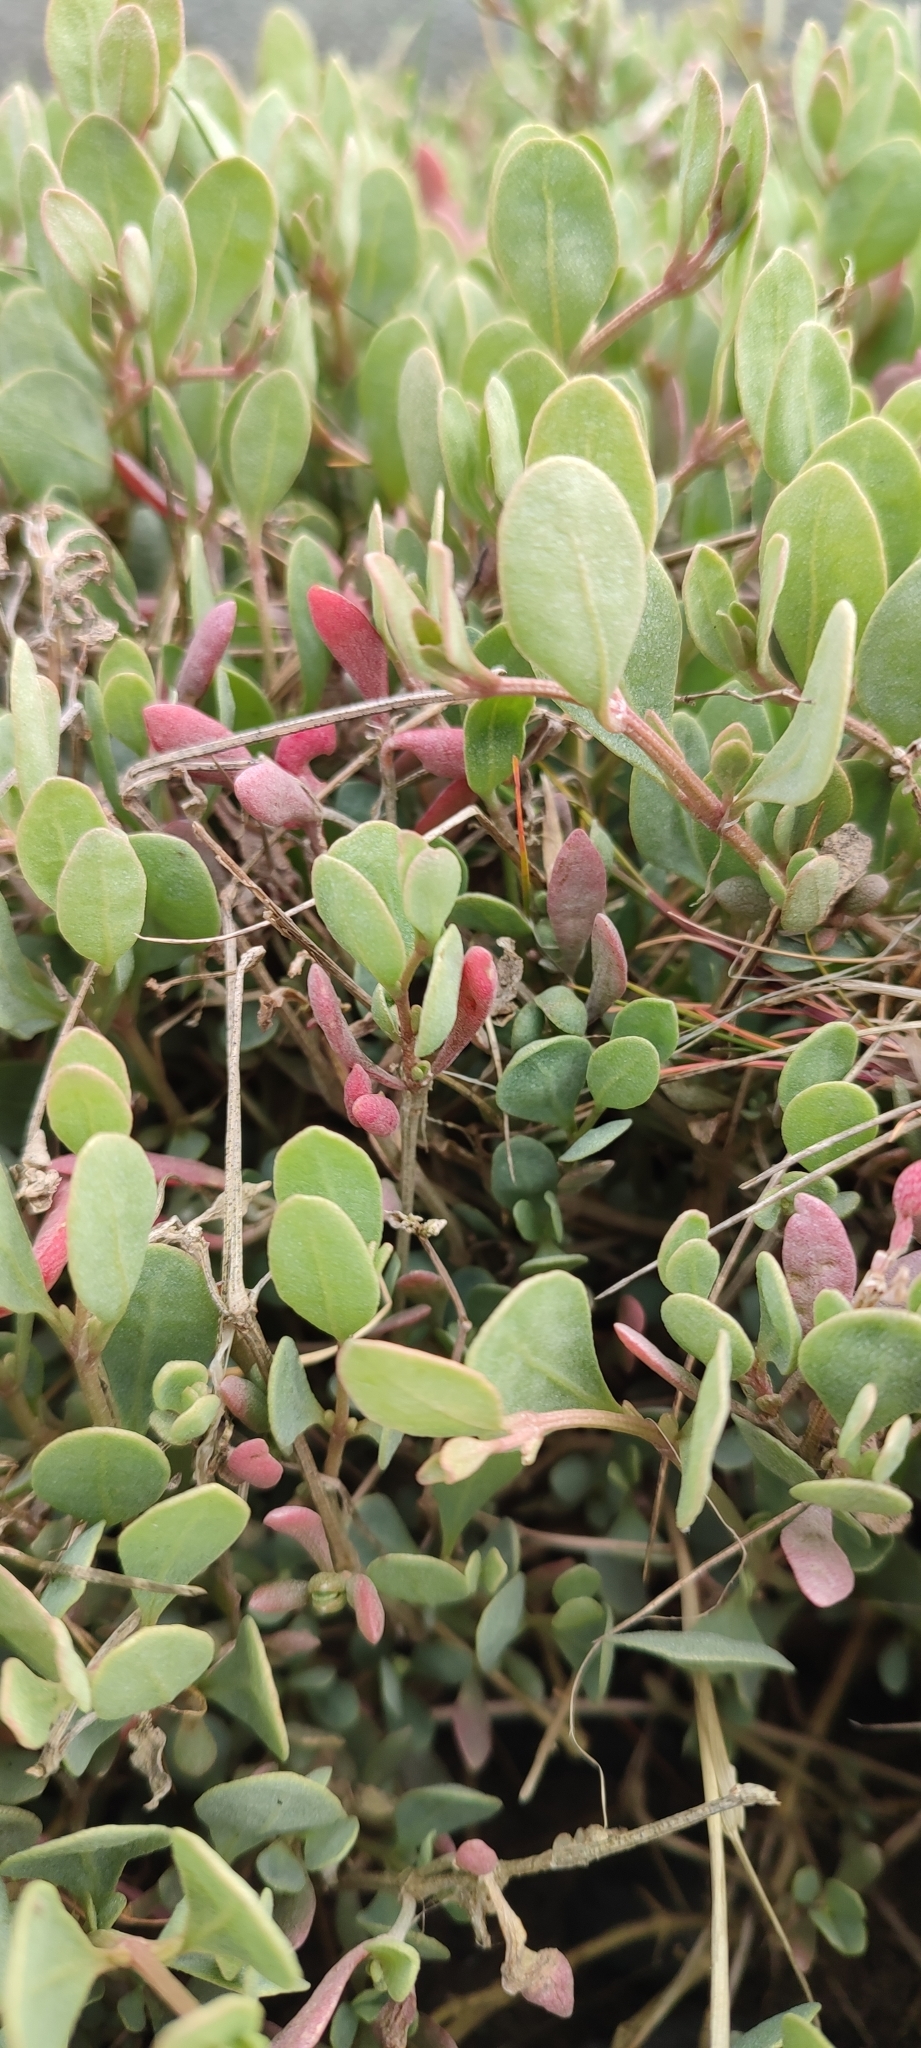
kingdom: Plantae
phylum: Tracheophyta
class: Magnoliopsida
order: Caryophyllales
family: Amaranthaceae
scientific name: Amaranthaceae
